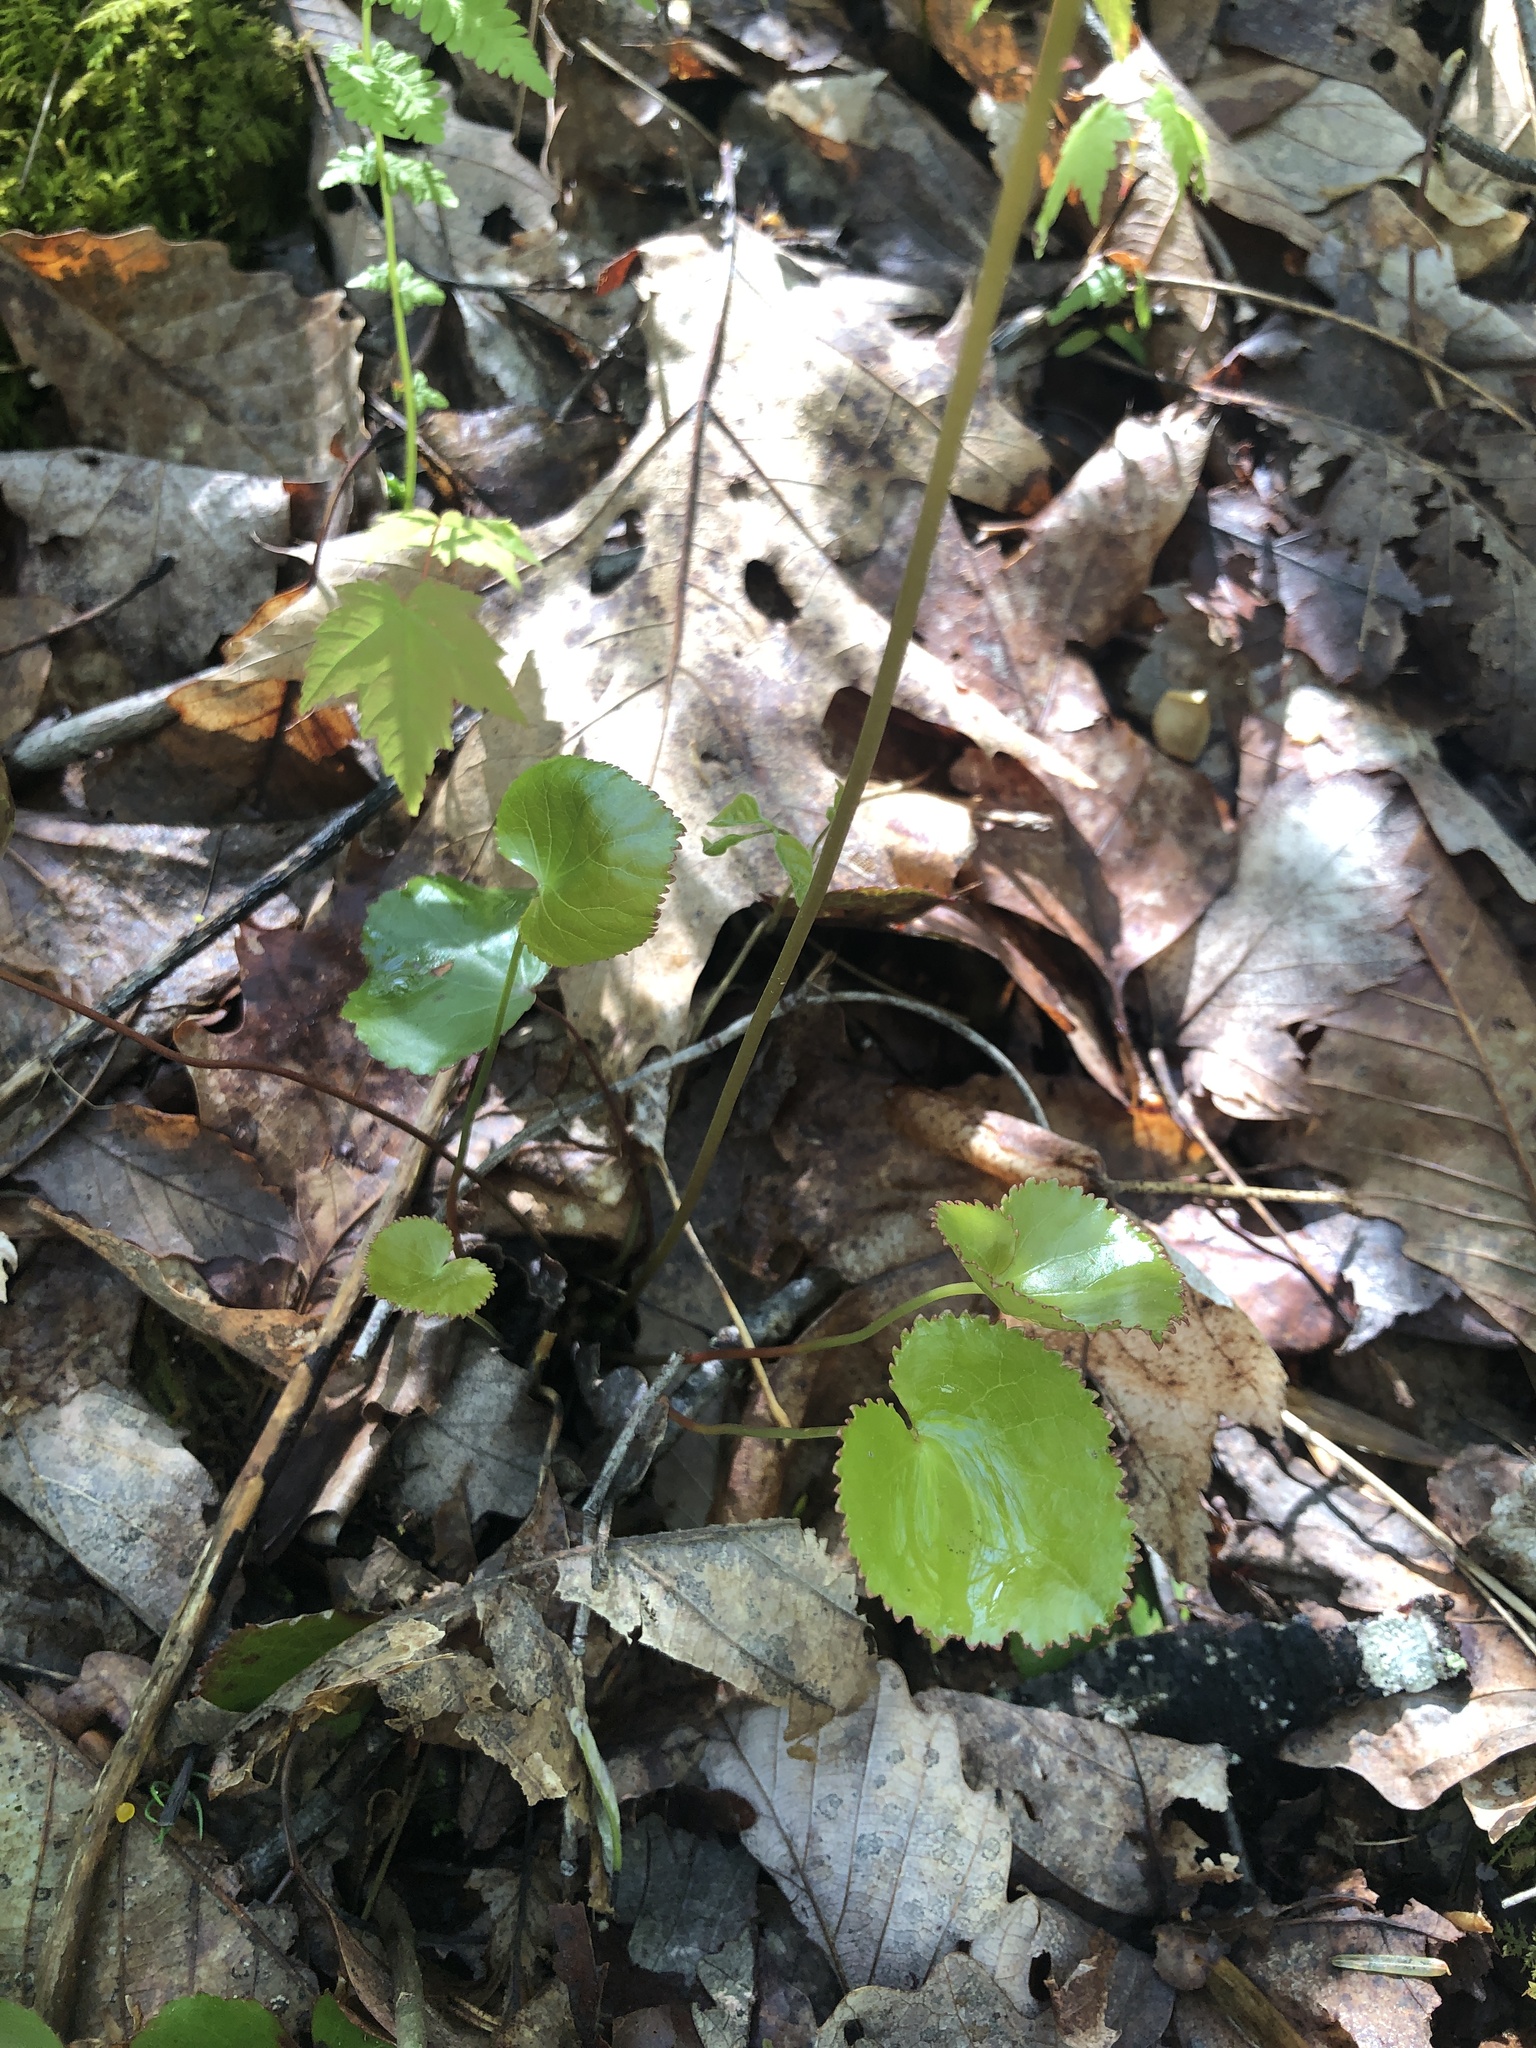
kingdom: Plantae
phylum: Tracheophyta
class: Magnoliopsida
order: Ericales
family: Diapensiaceae
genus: Galax
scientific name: Galax urceolata
